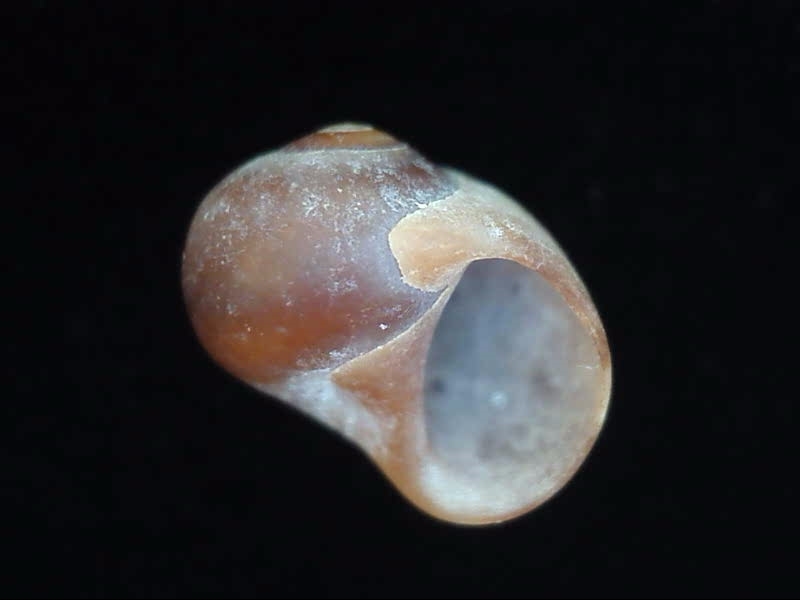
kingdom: Animalia
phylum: Mollusca
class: Gastropoda
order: Littorinimorpha
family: Naticidae
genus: Proxiuber
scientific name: Proxiuber australe
